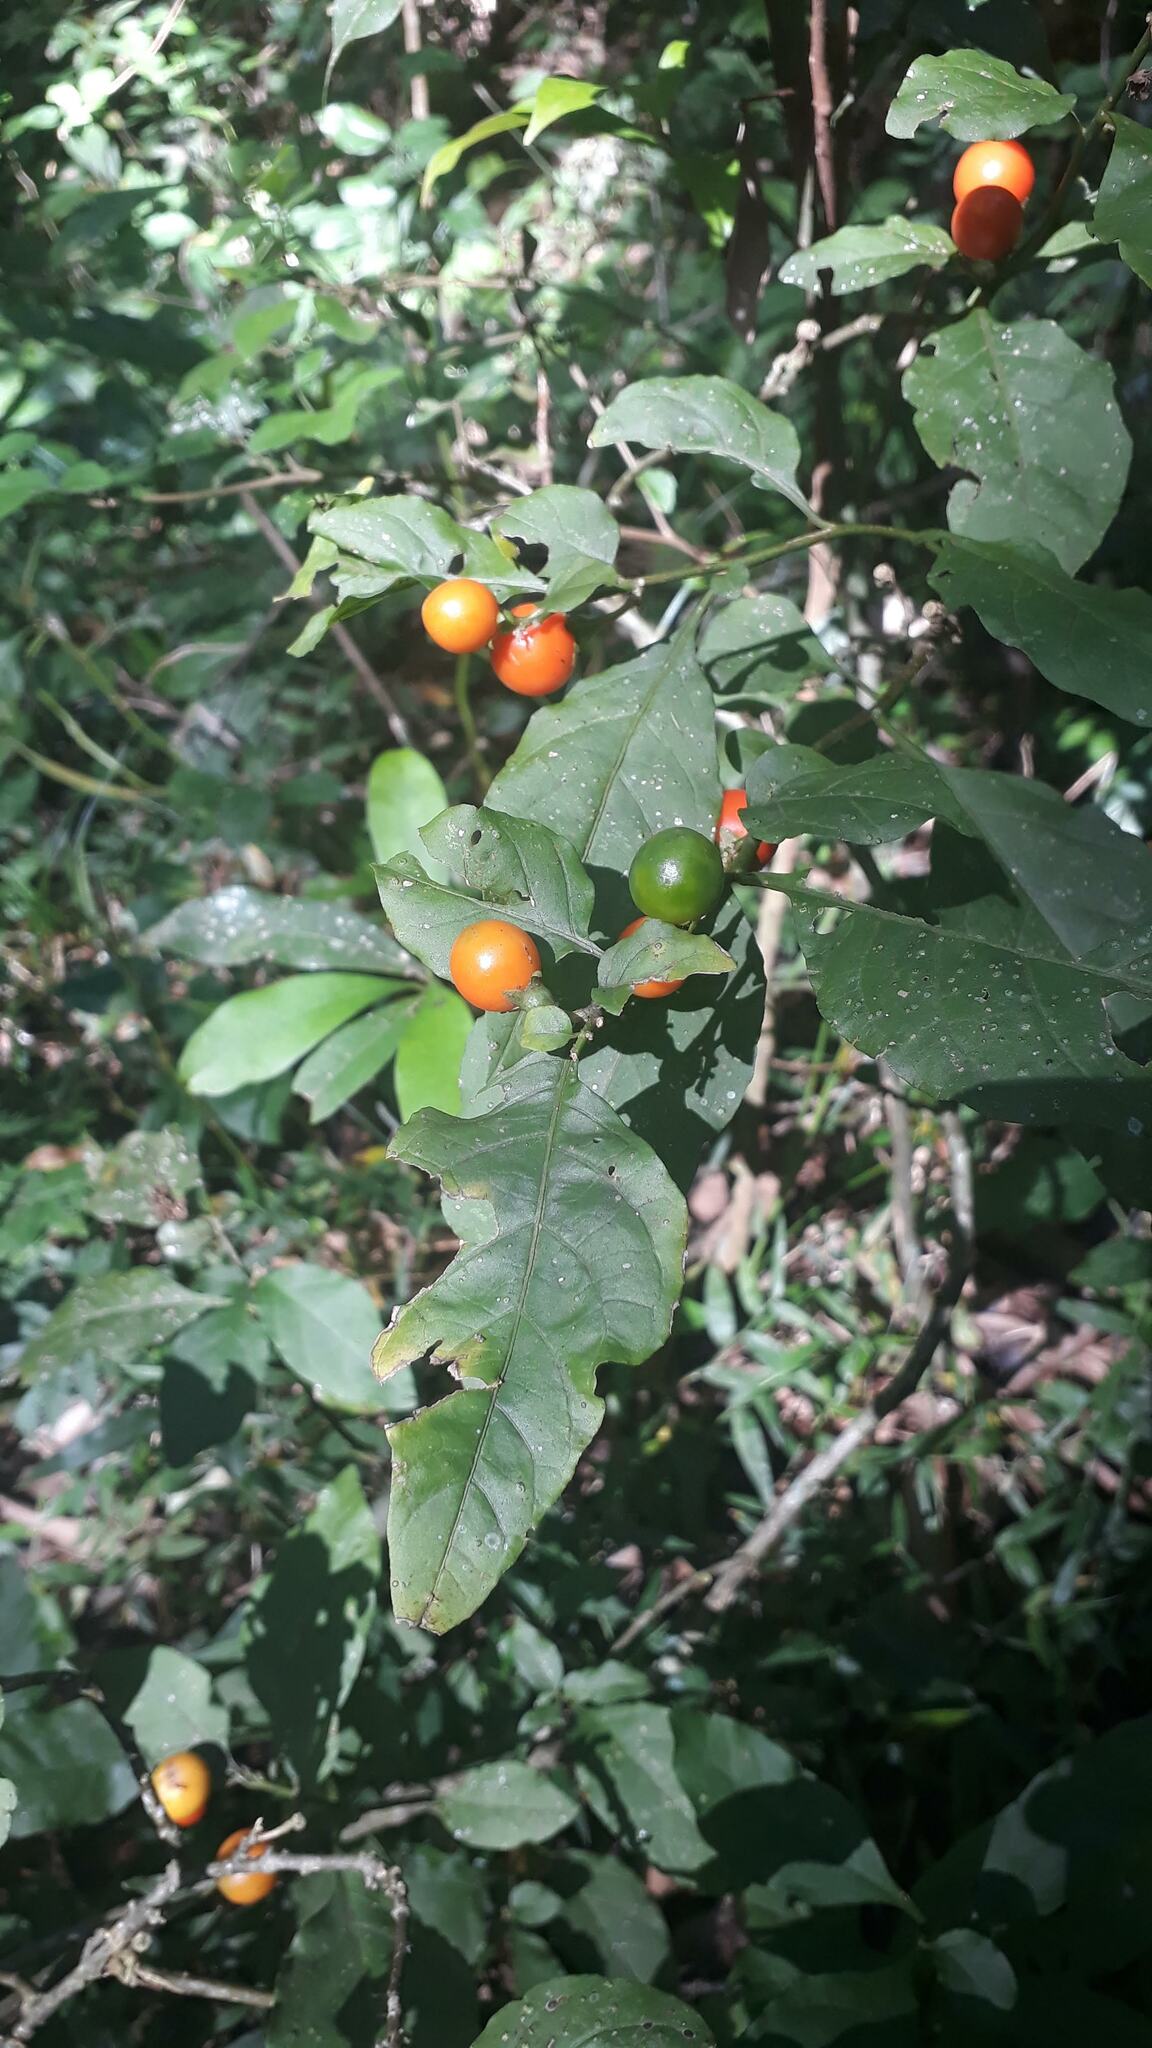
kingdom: Plantae
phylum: Tracheophyta
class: Magnoliopsida
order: Solanales
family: Solanaceae
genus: Solanum
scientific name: Solanum pseudocapsicum
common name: Jerusalem cherry
